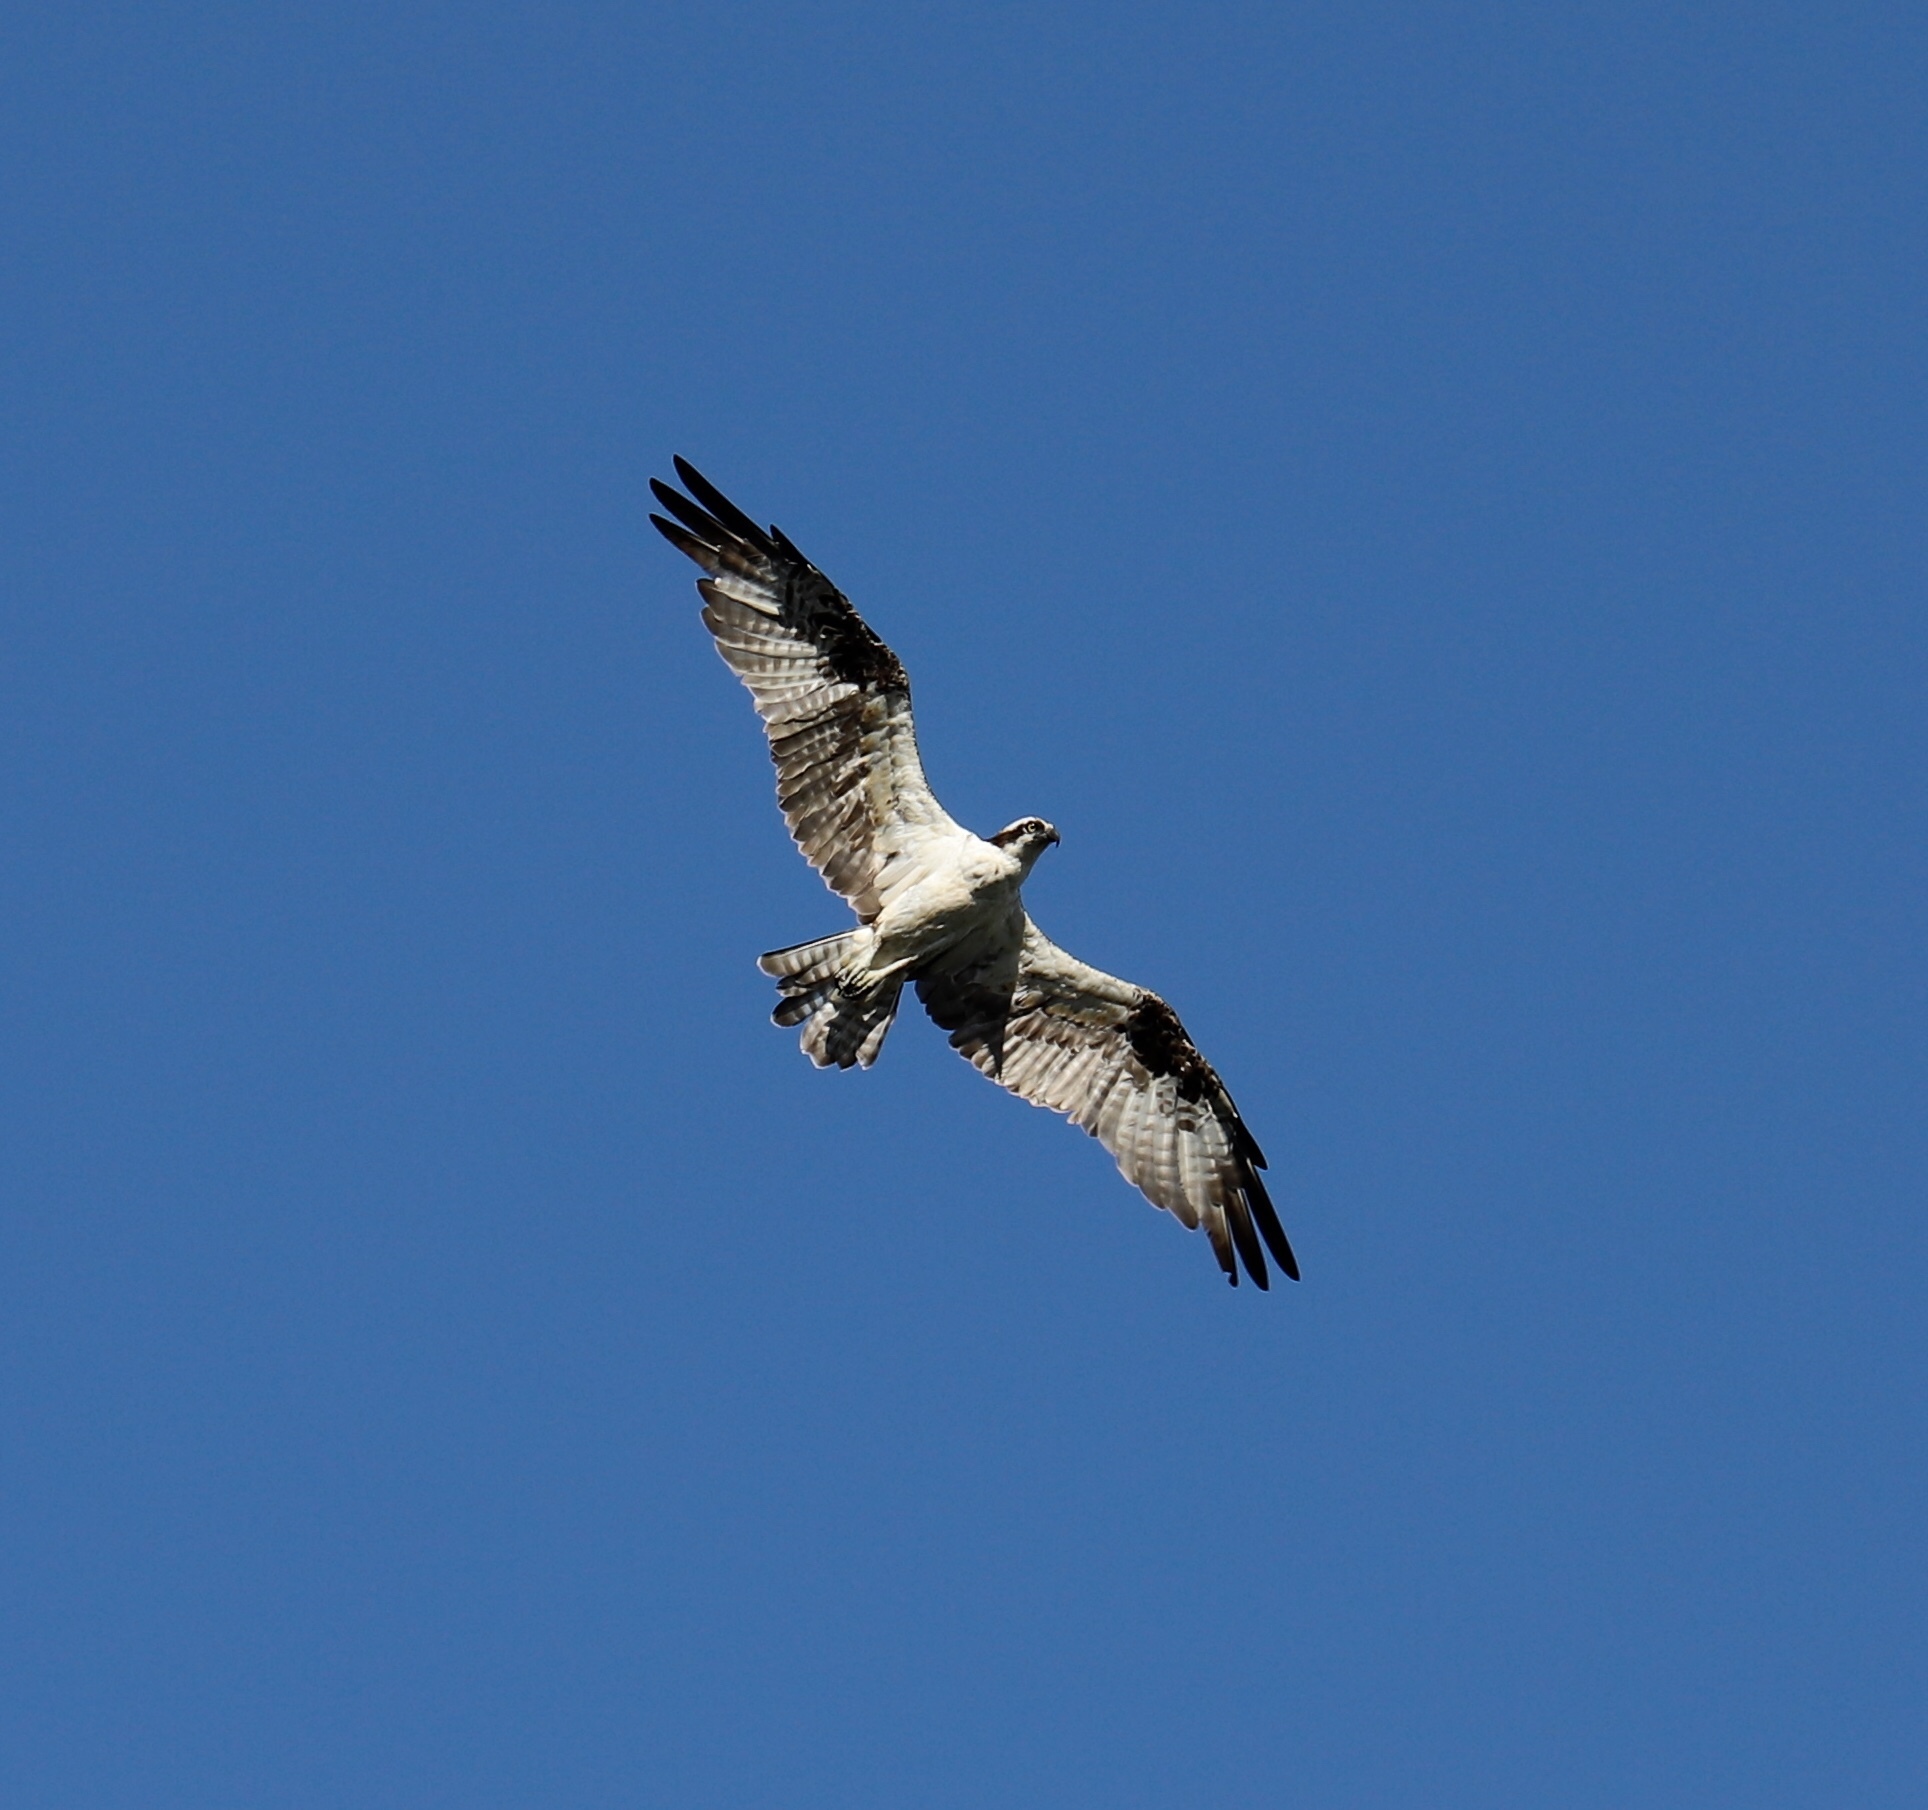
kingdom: Animalia
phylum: Chordata
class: Aves
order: Accipitriformes
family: Pandionidae
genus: Pandion
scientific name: Pandion haliaetus
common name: Osprey
